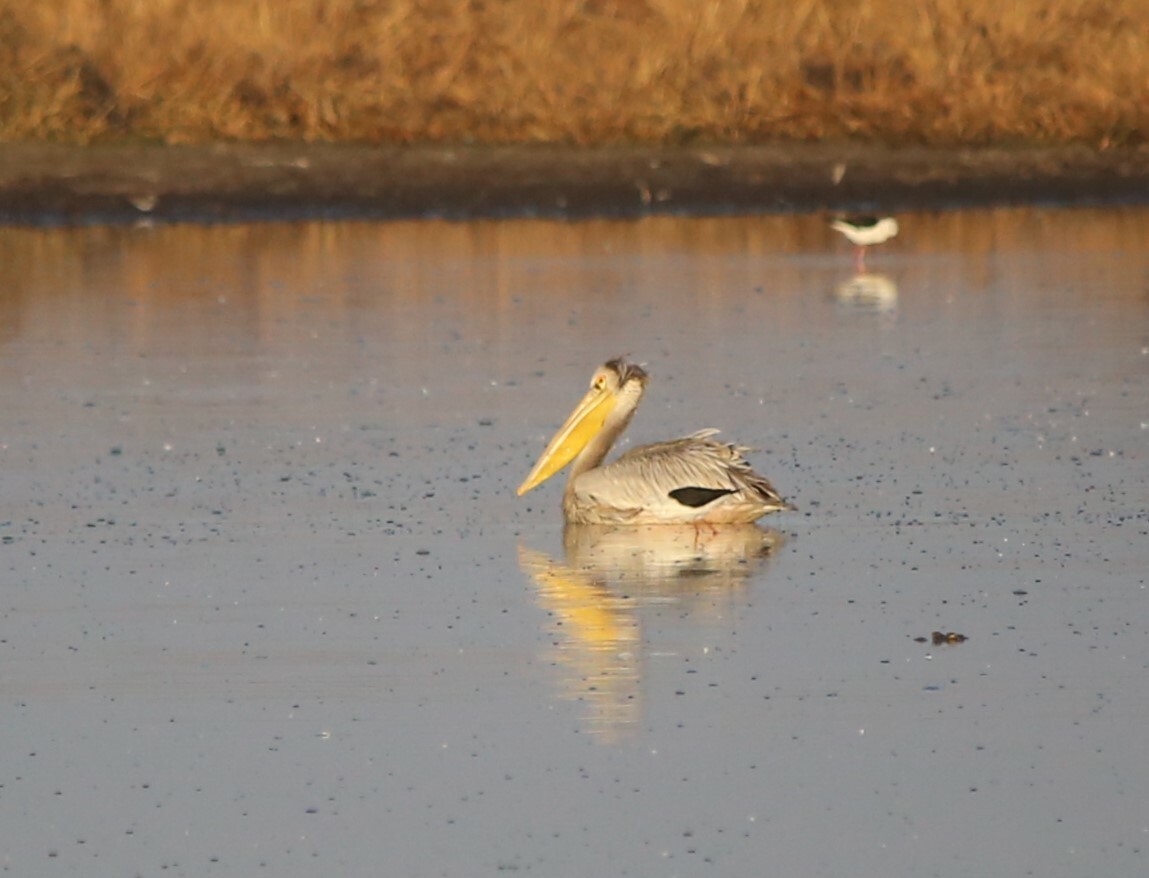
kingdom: Animalia
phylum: Chordata
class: Aves
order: Pelecaniformes
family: Pelecanidae
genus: Pelecanus
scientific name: Pelecanus rufescens
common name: Pink-backed pelican
